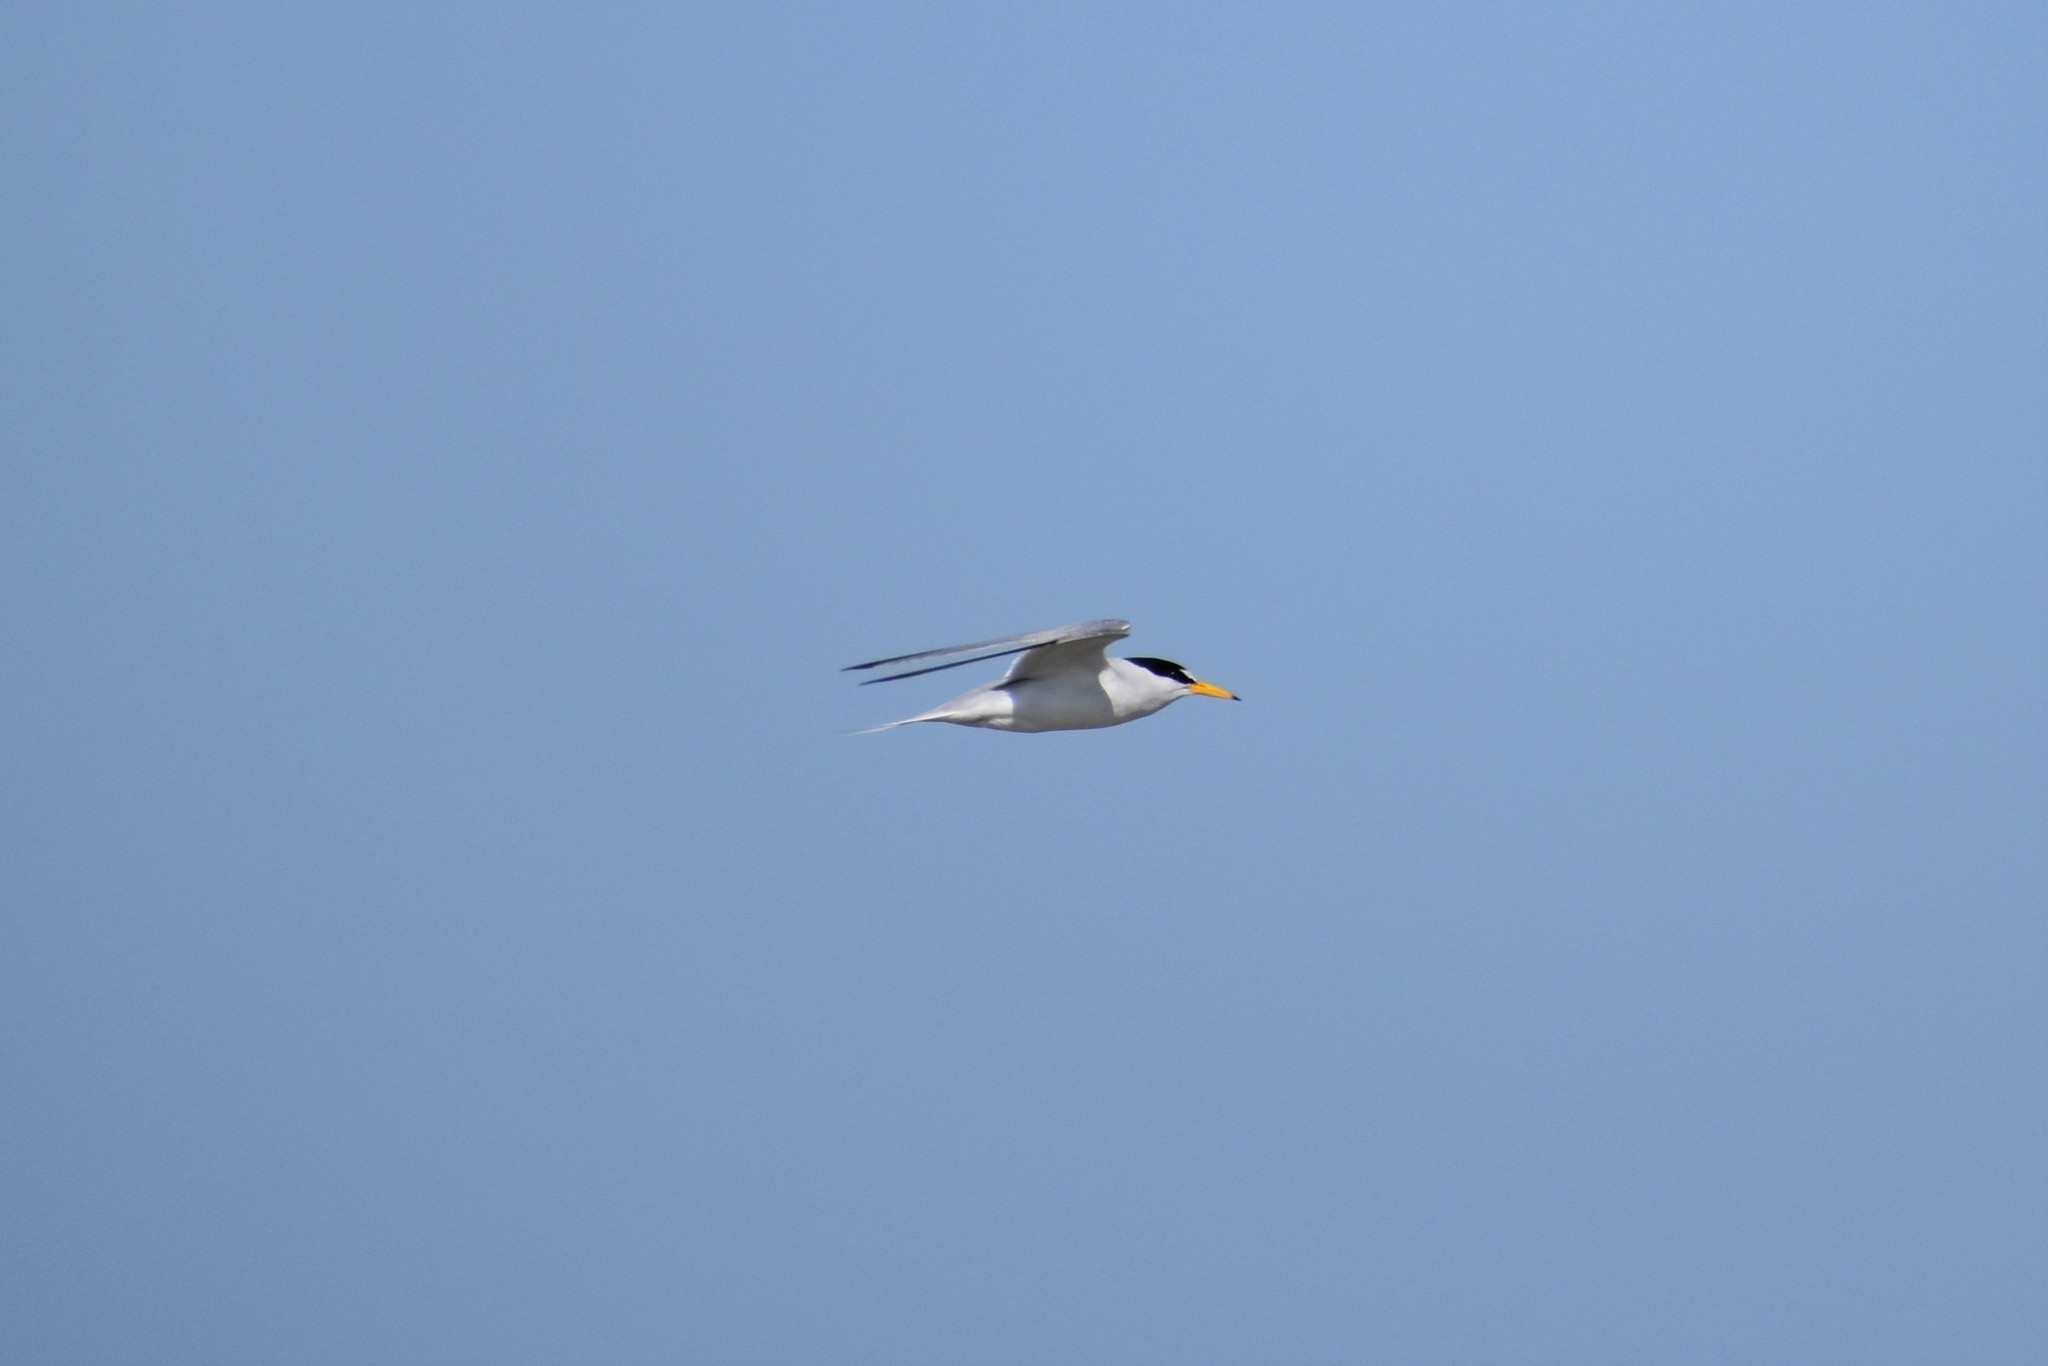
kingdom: Animalia
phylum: Chordata
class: Aves
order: Charadriiformes
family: Laridae
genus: Sternula
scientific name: Sternula antillarum
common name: Least tern
